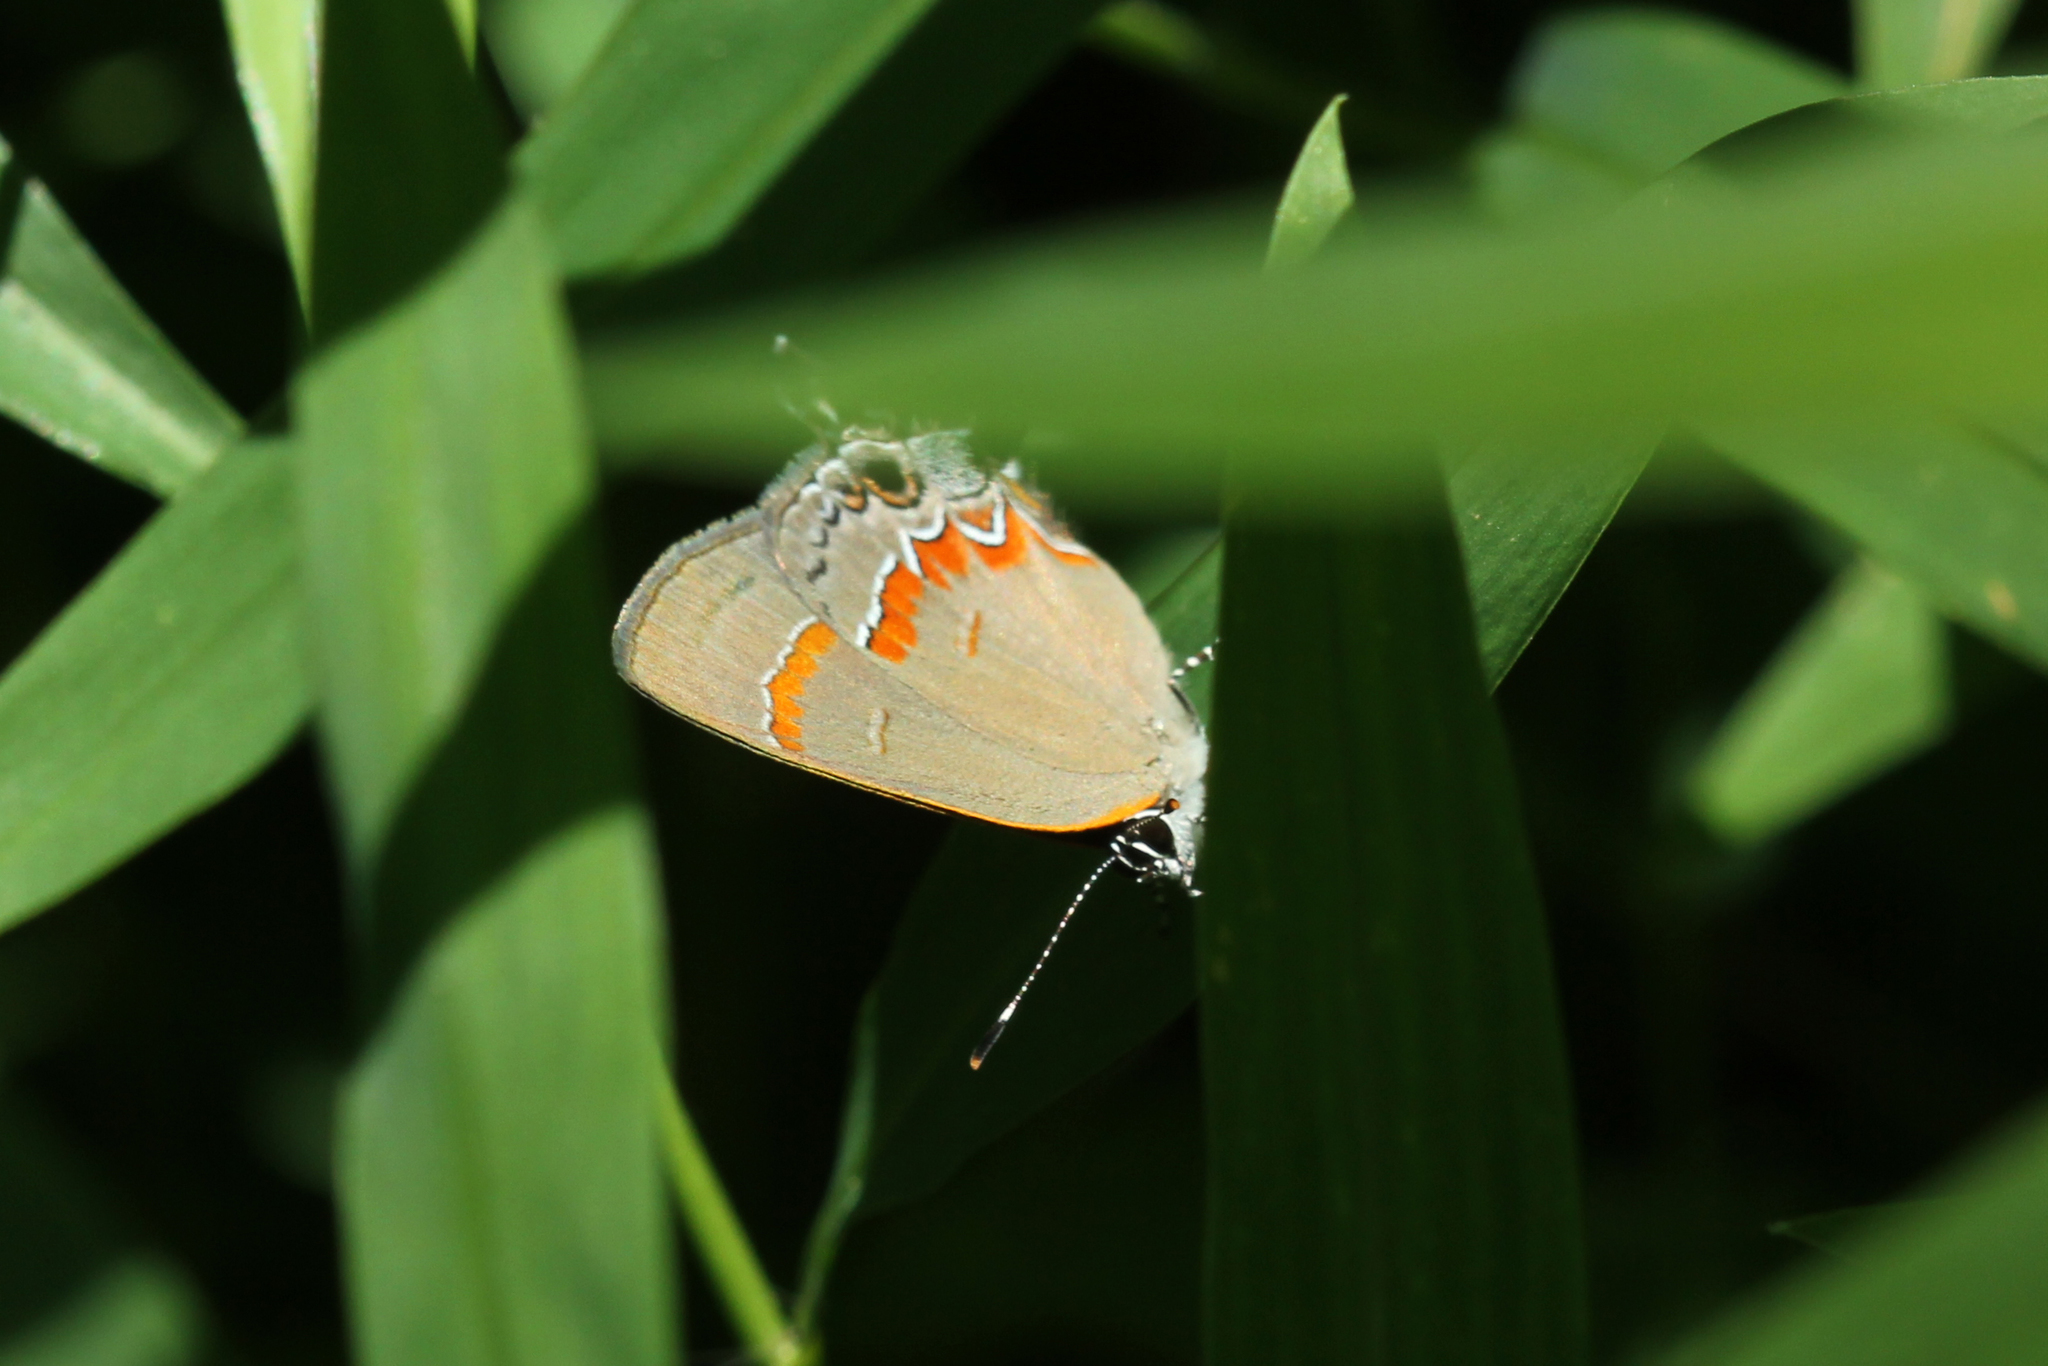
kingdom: Animalia
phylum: Arthropoda
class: Insecta
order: Lepidoptera
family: Lycaenidae
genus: Calycopis
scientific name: Calycopis cecrops
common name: Red-banded hairstreak
